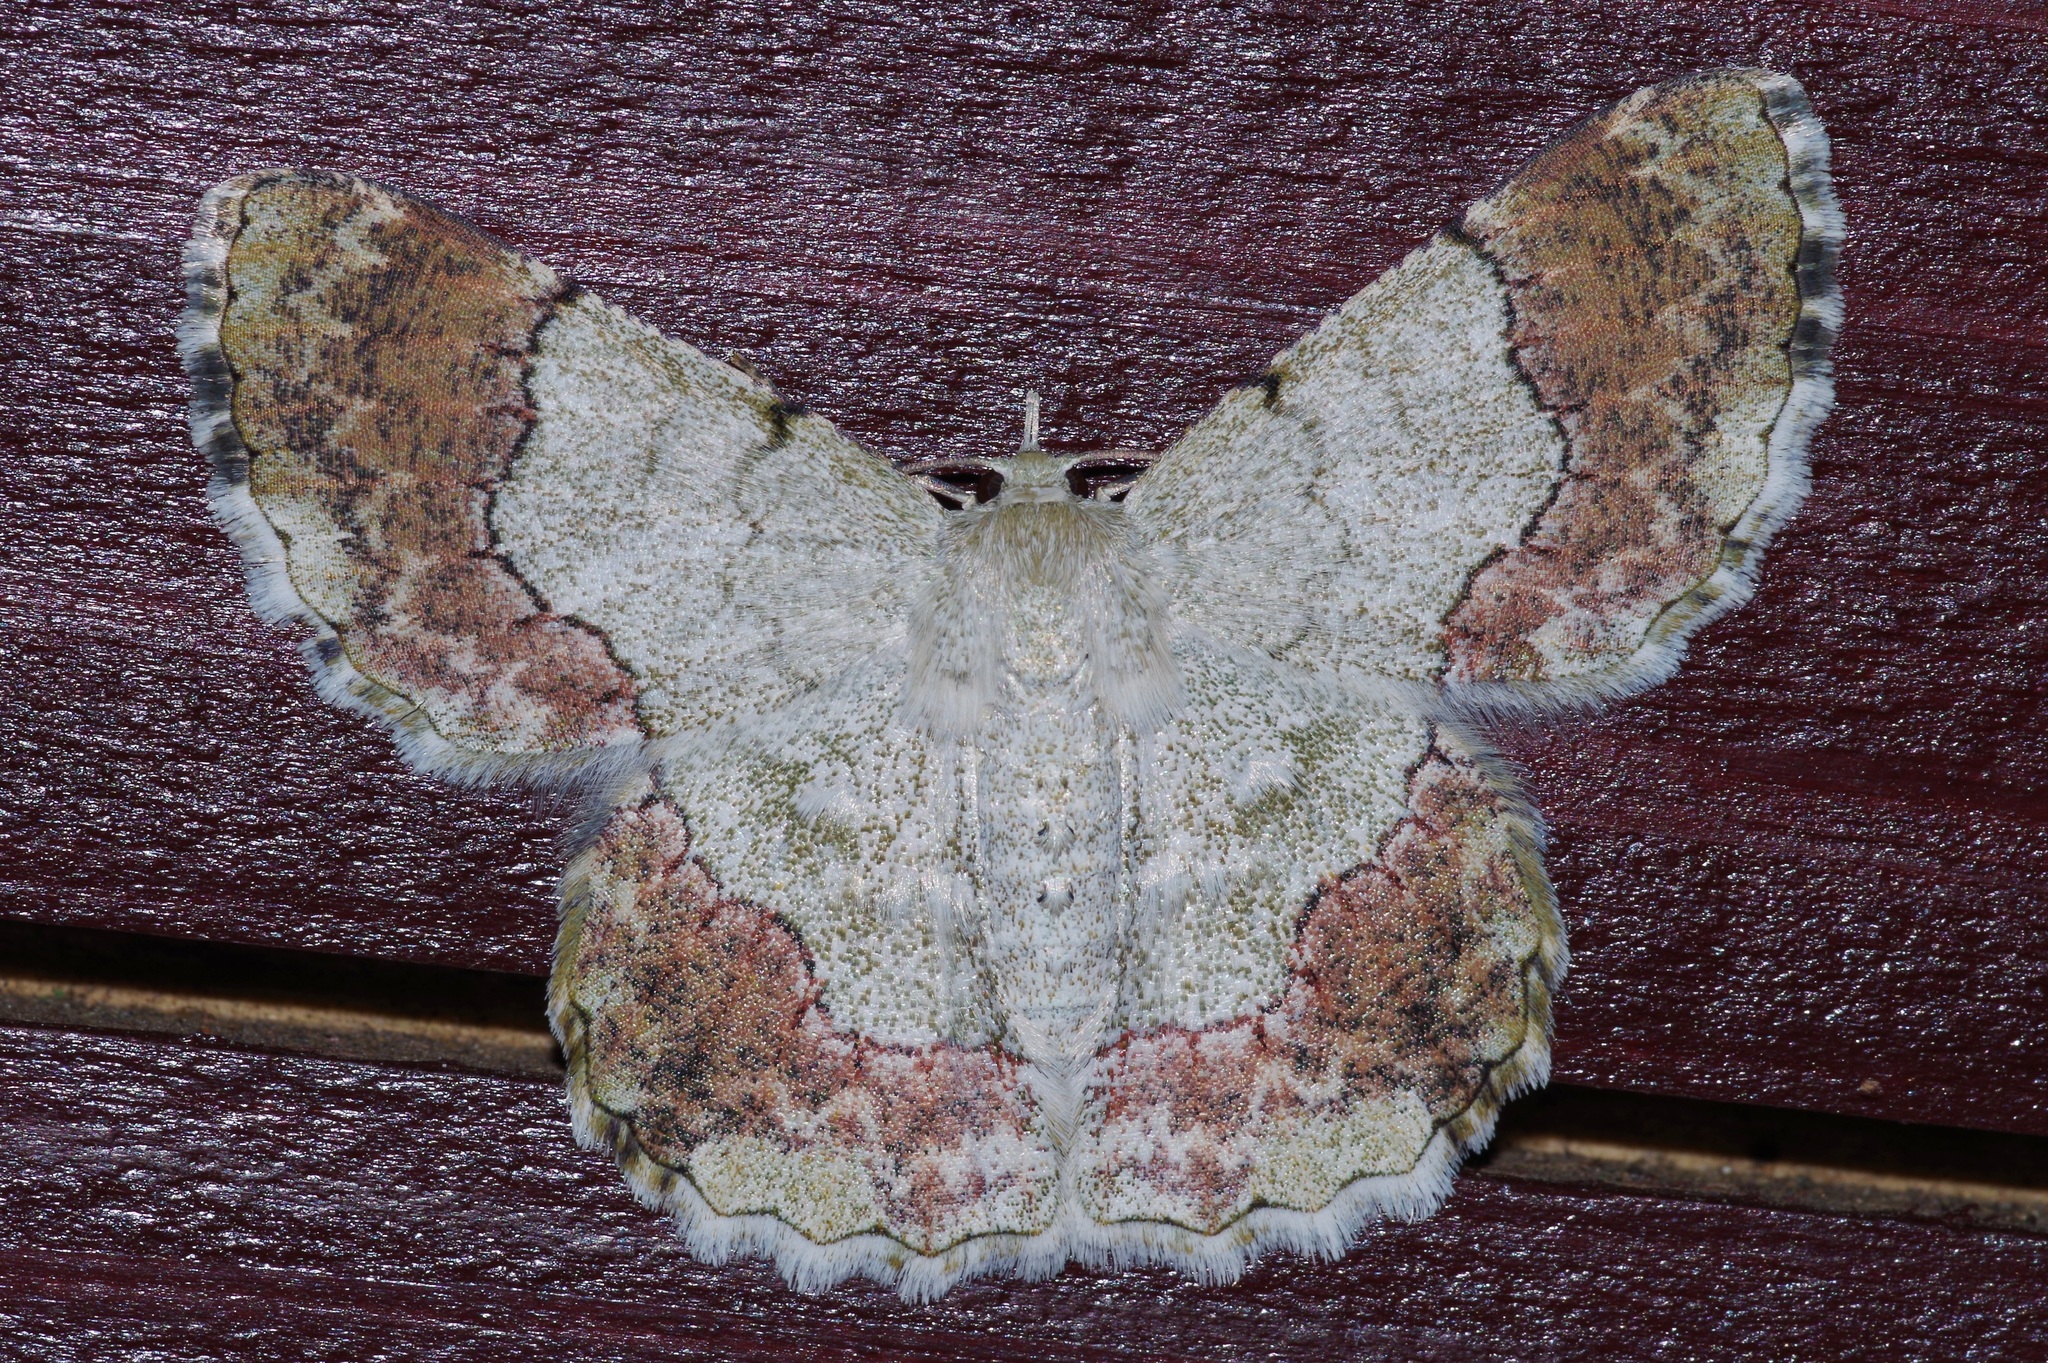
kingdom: Animalia
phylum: Arthropoda
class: Insecta
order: Lepidoptera
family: Geometridae
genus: Pingasa
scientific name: Pingasa ruginaria
